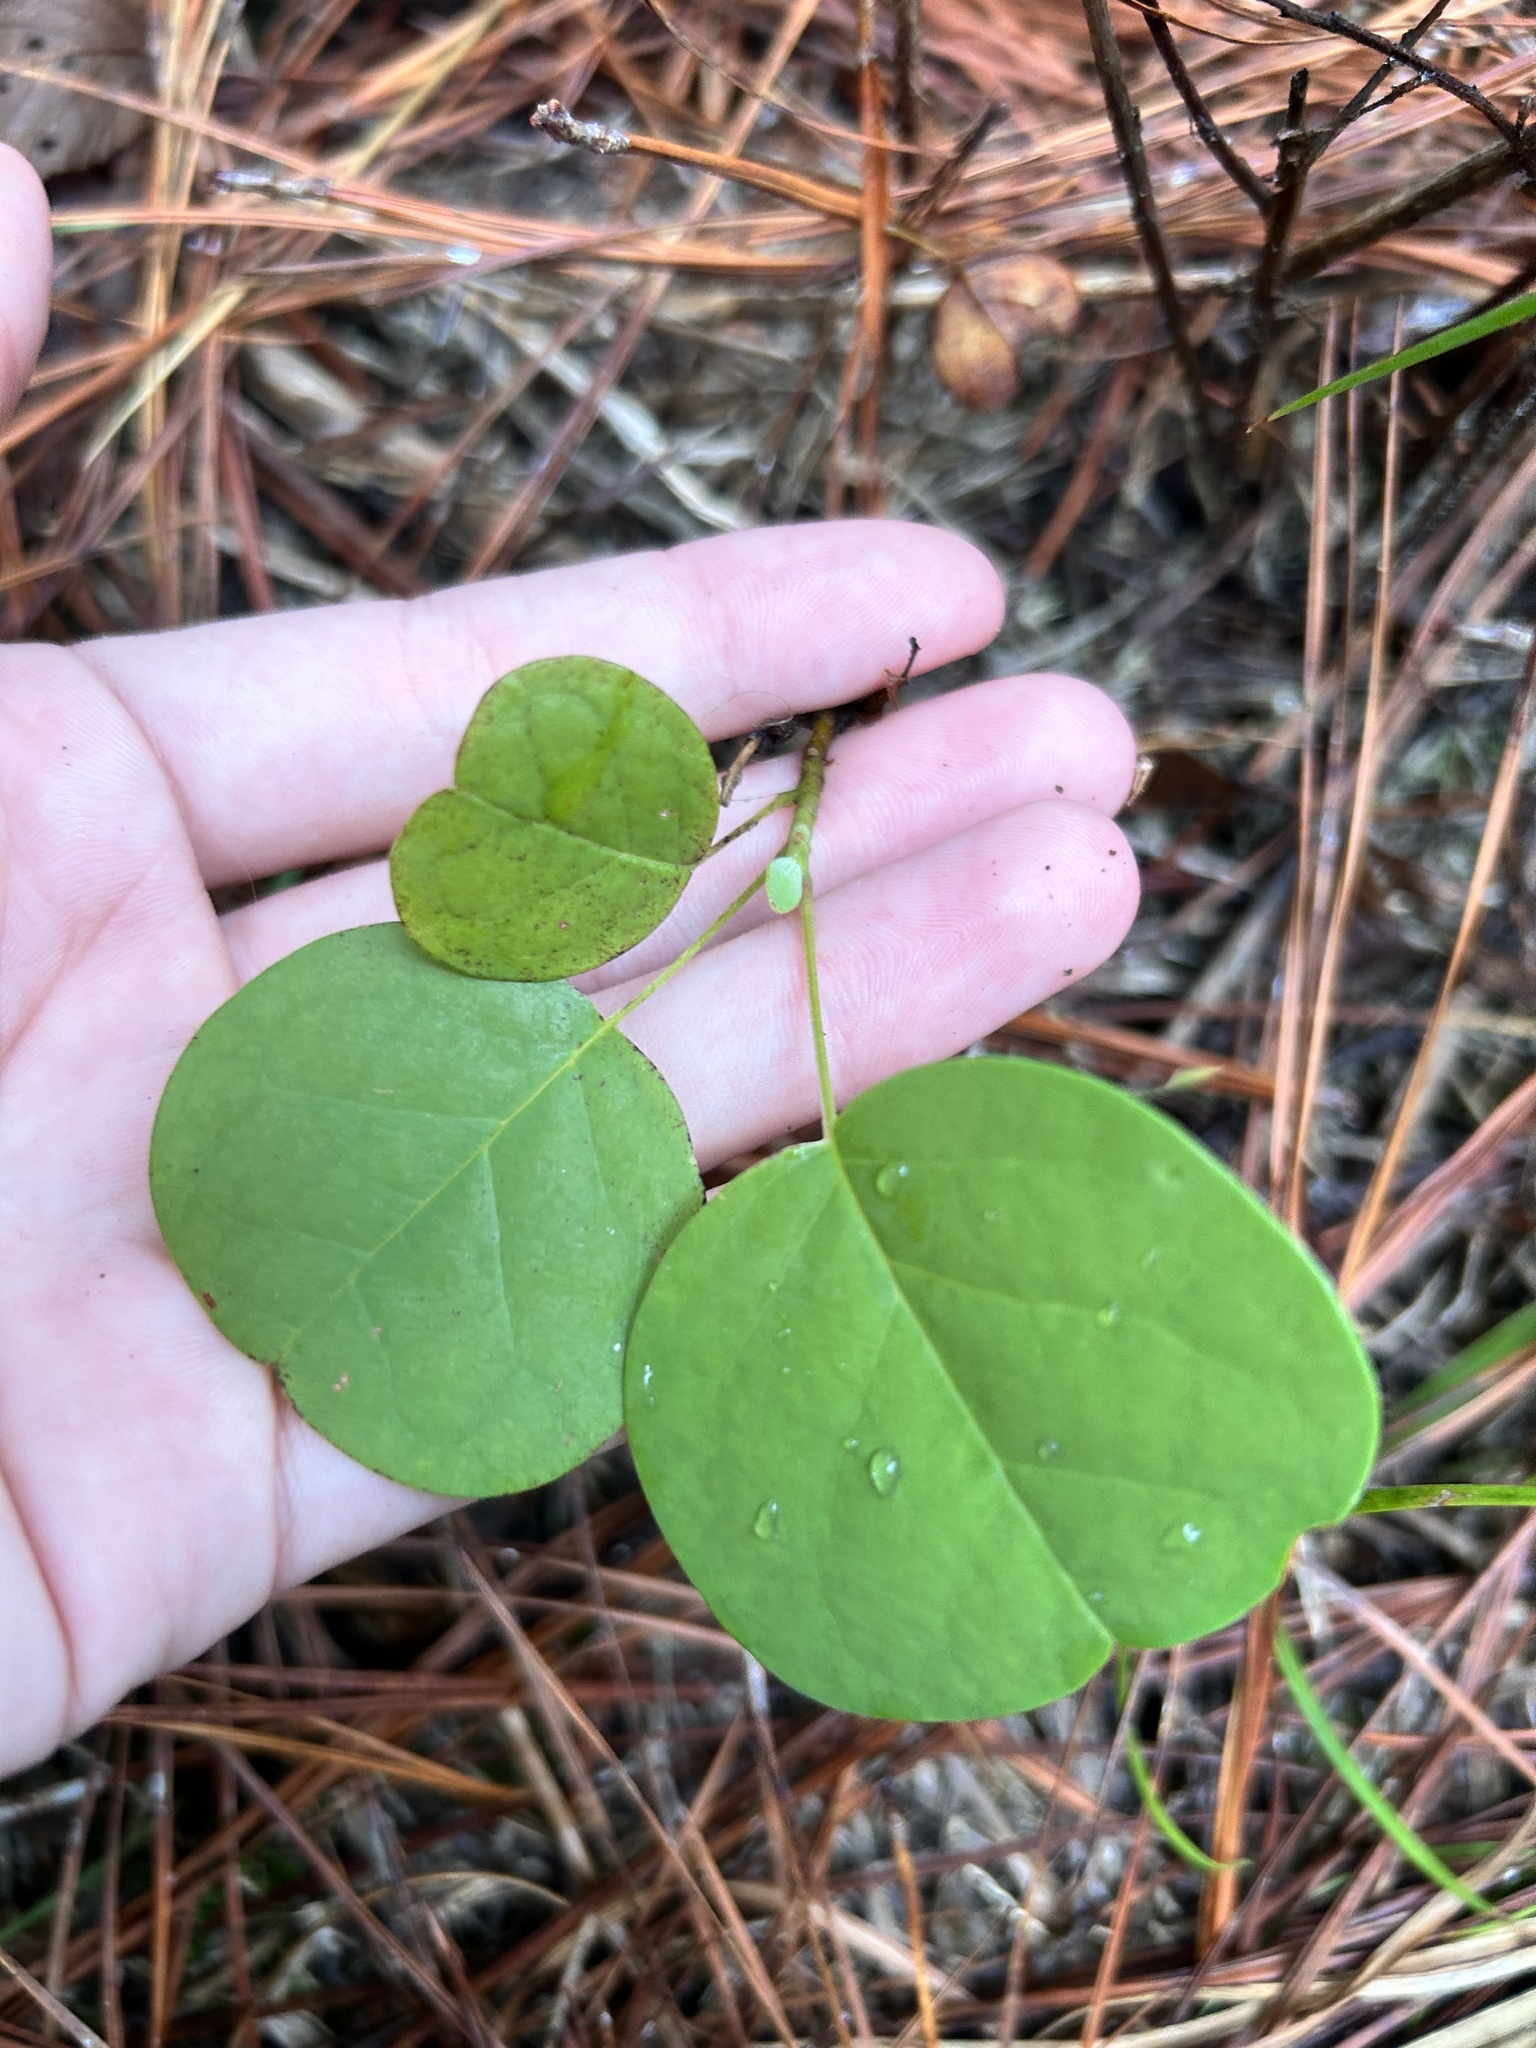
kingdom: Plantae
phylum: Tracheophyta
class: Magnoliopsida
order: Magnoliales
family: Magnoliaceae
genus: Liriodendron
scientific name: Liriodendron tulipifera
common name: Tulip tree
